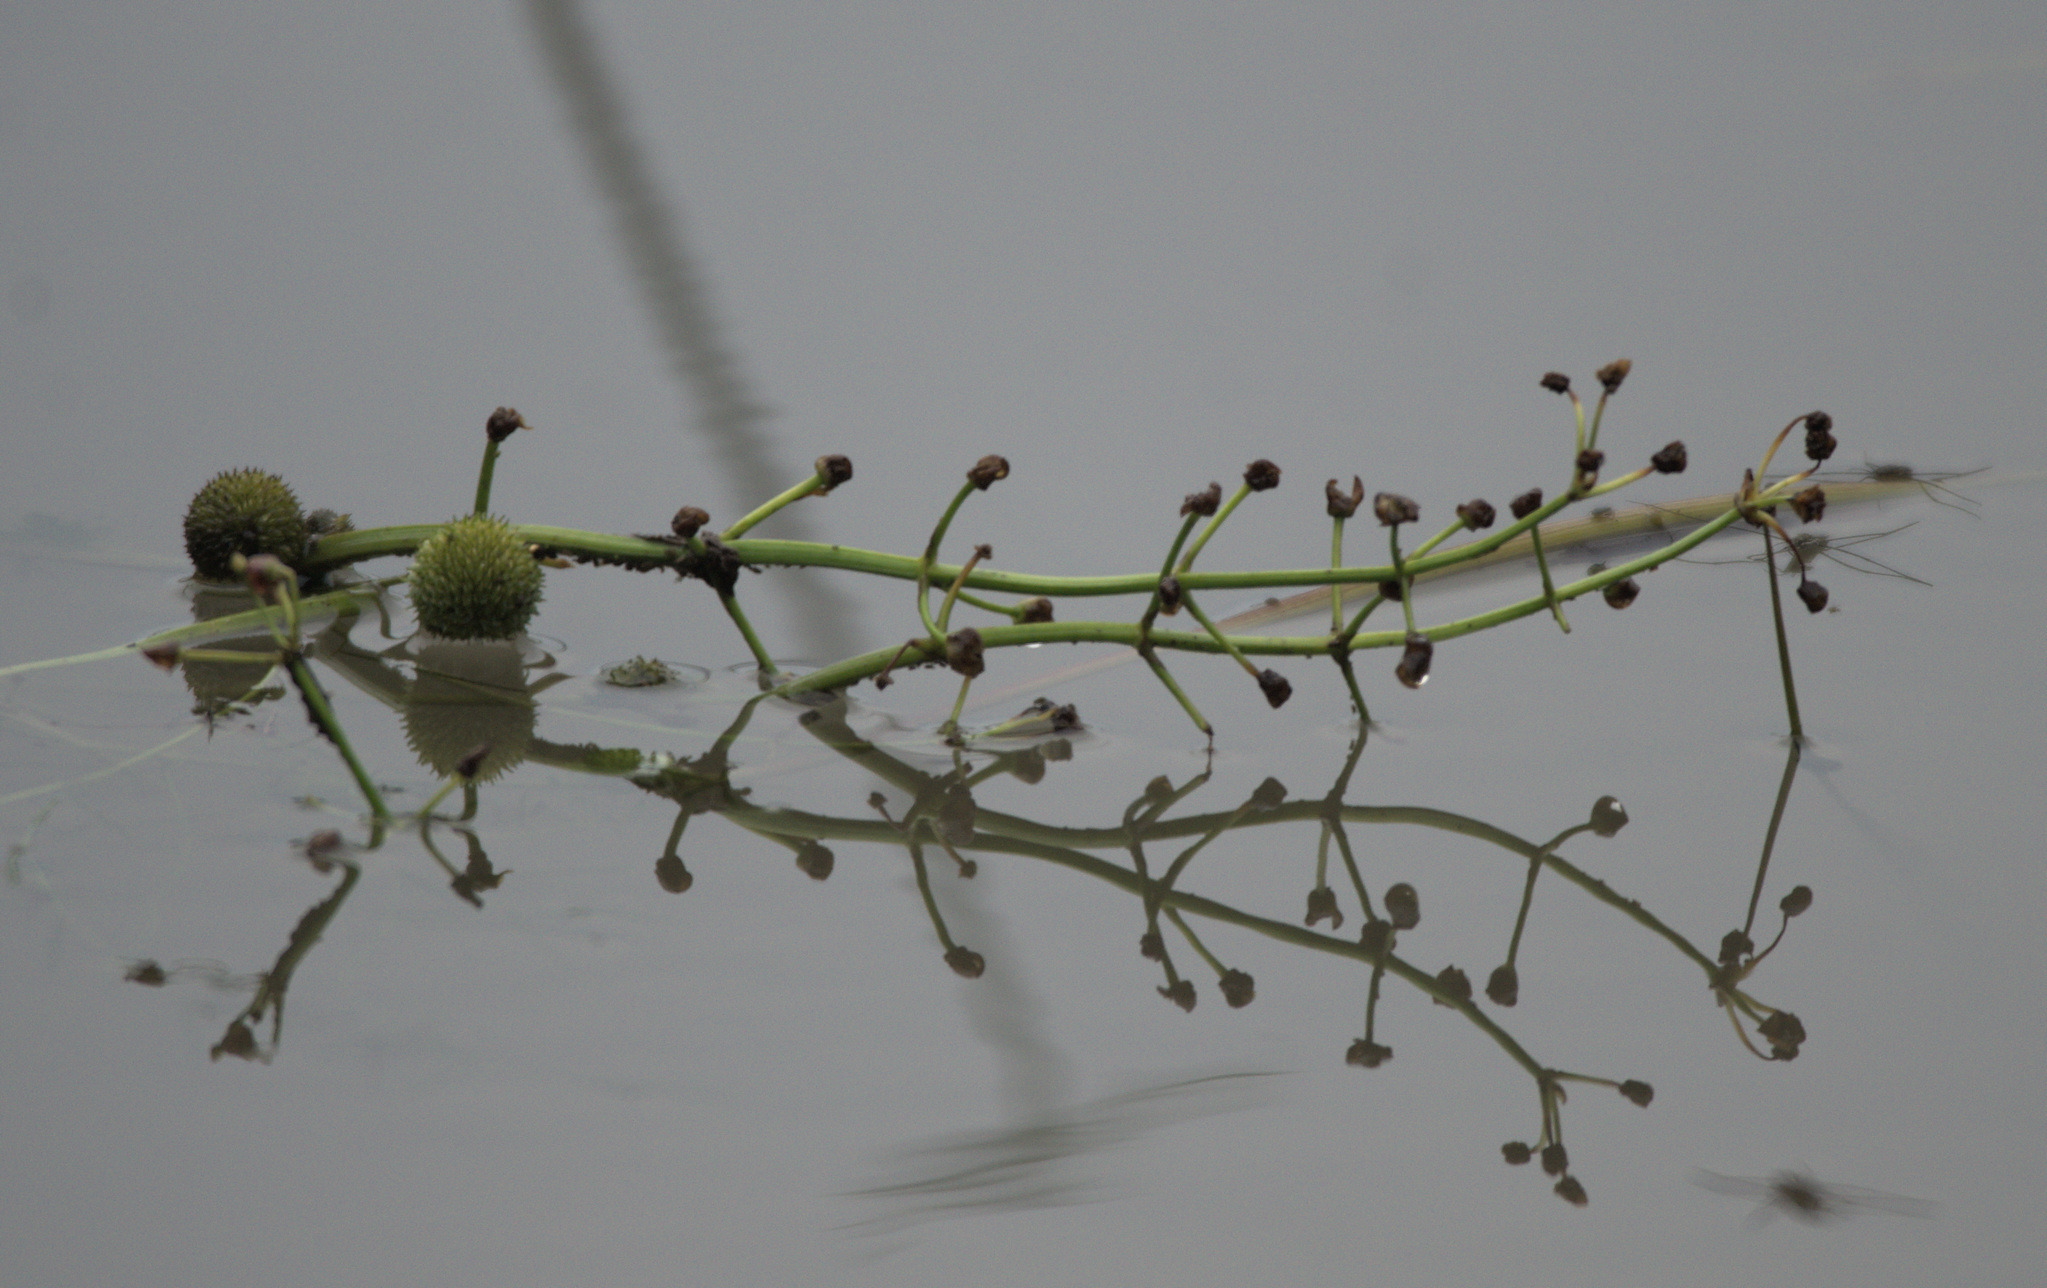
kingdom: Plantae
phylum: Tracheophyta
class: Liliopsida
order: Alismatales
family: Alismataceae
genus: Sagittaria
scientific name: Sagittaria sagittifolia
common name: Arrowhead
